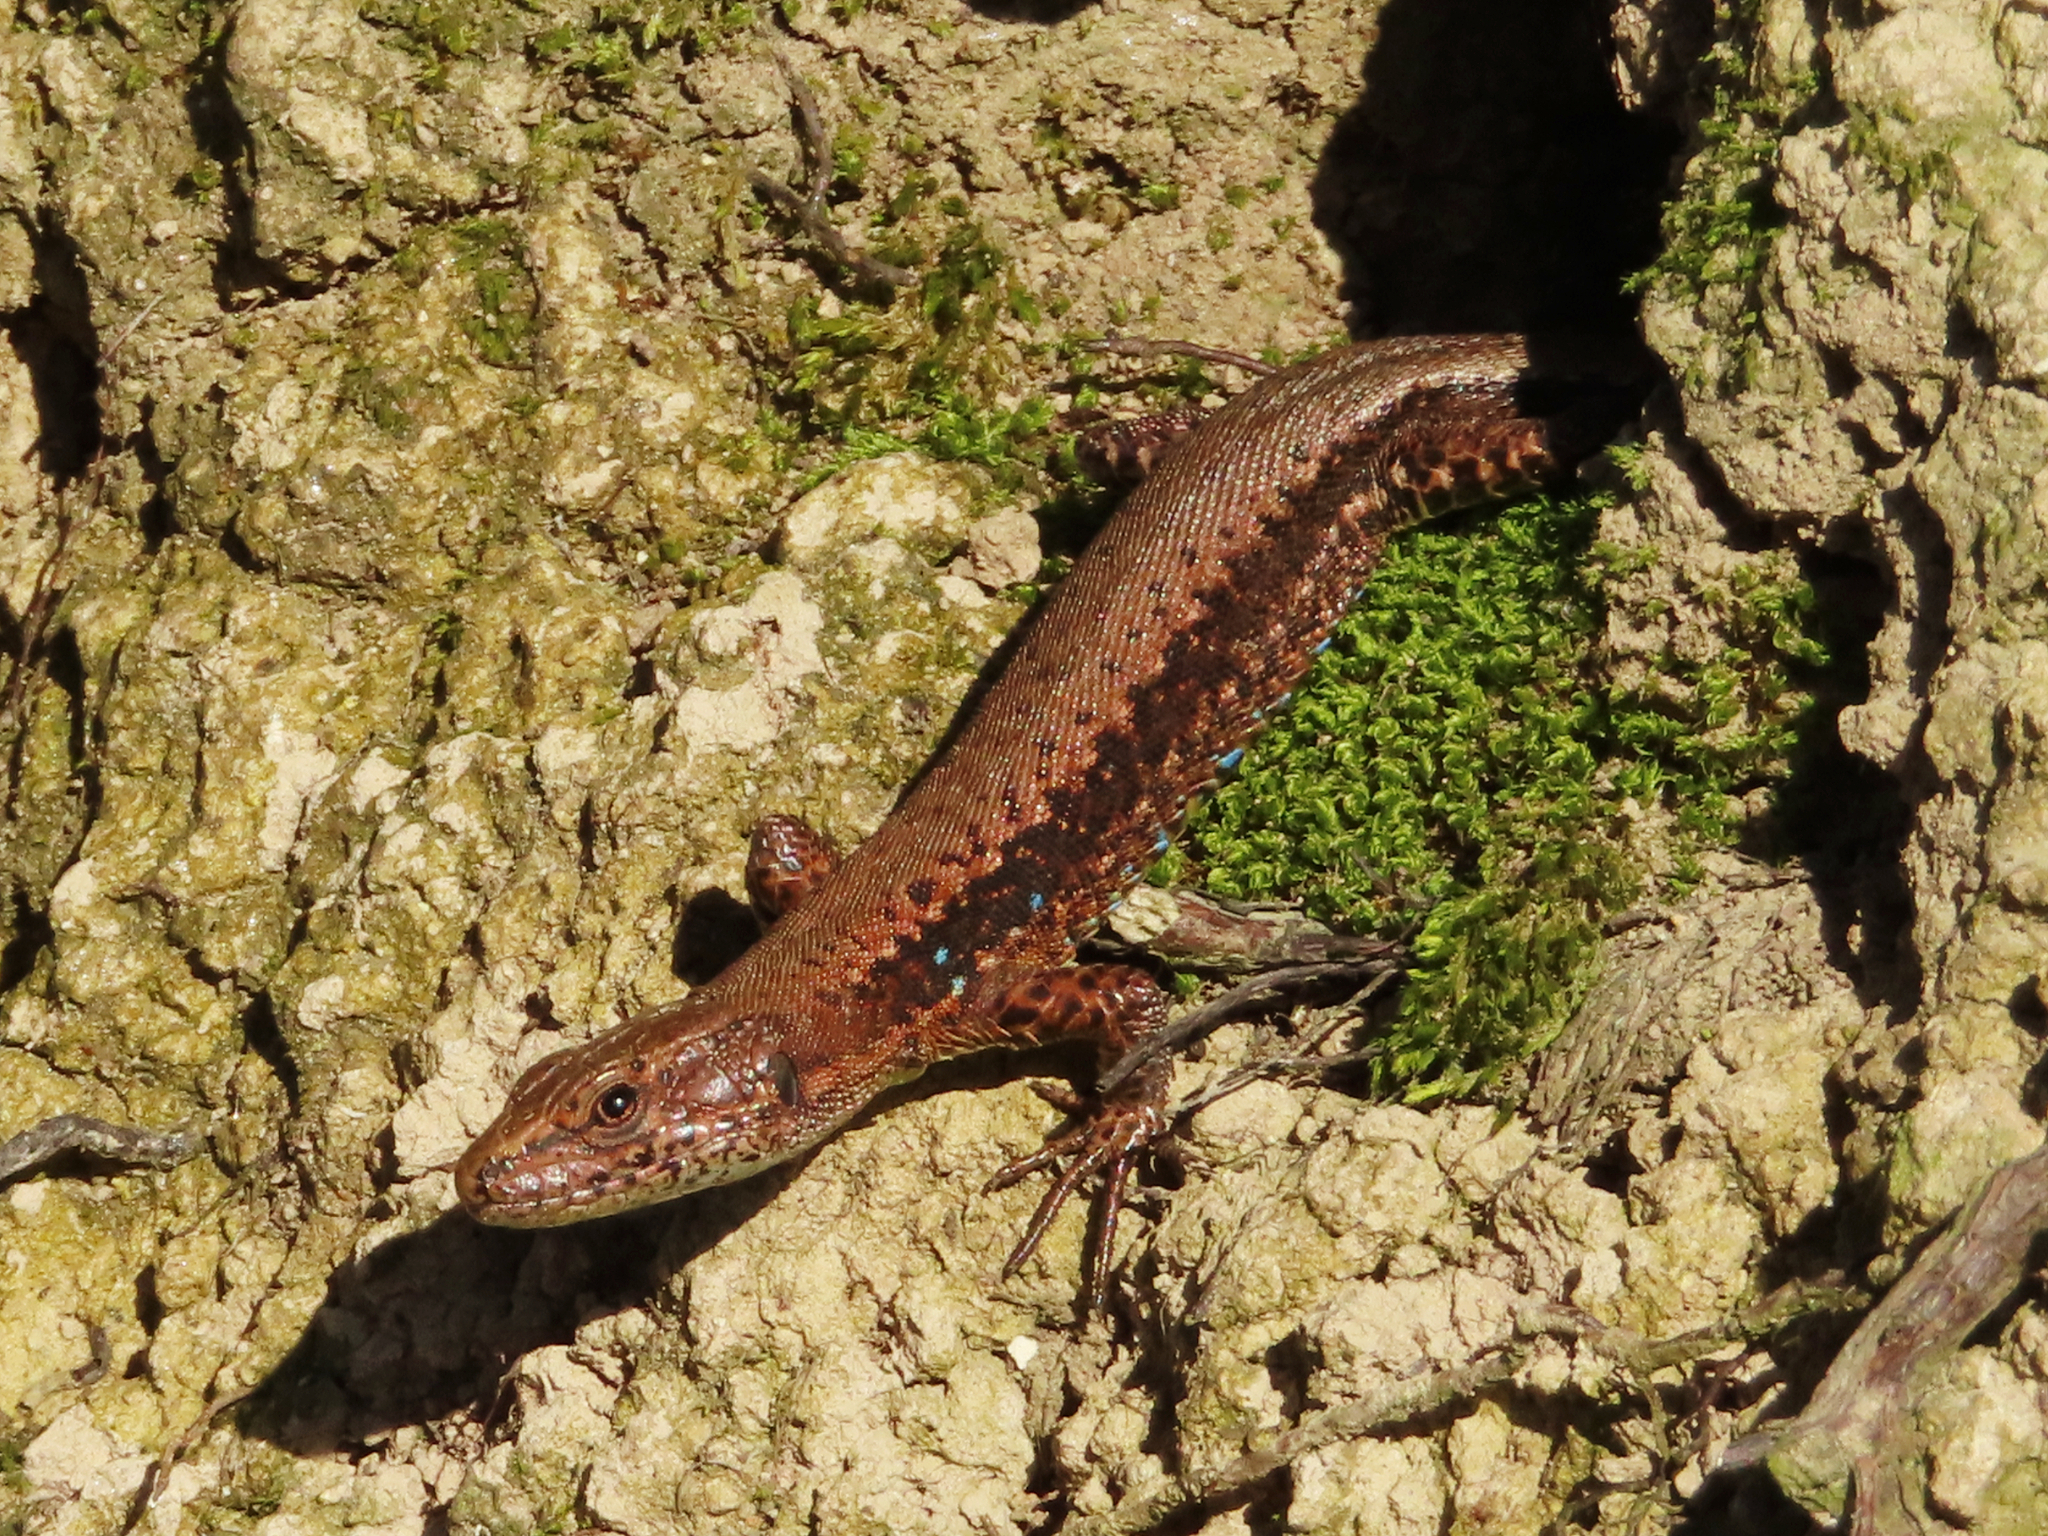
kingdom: Animalia
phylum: Chordata
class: Squamata
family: Lacertidae
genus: Darevskia
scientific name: Darevskia derjugini
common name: Derjugin's lizard
